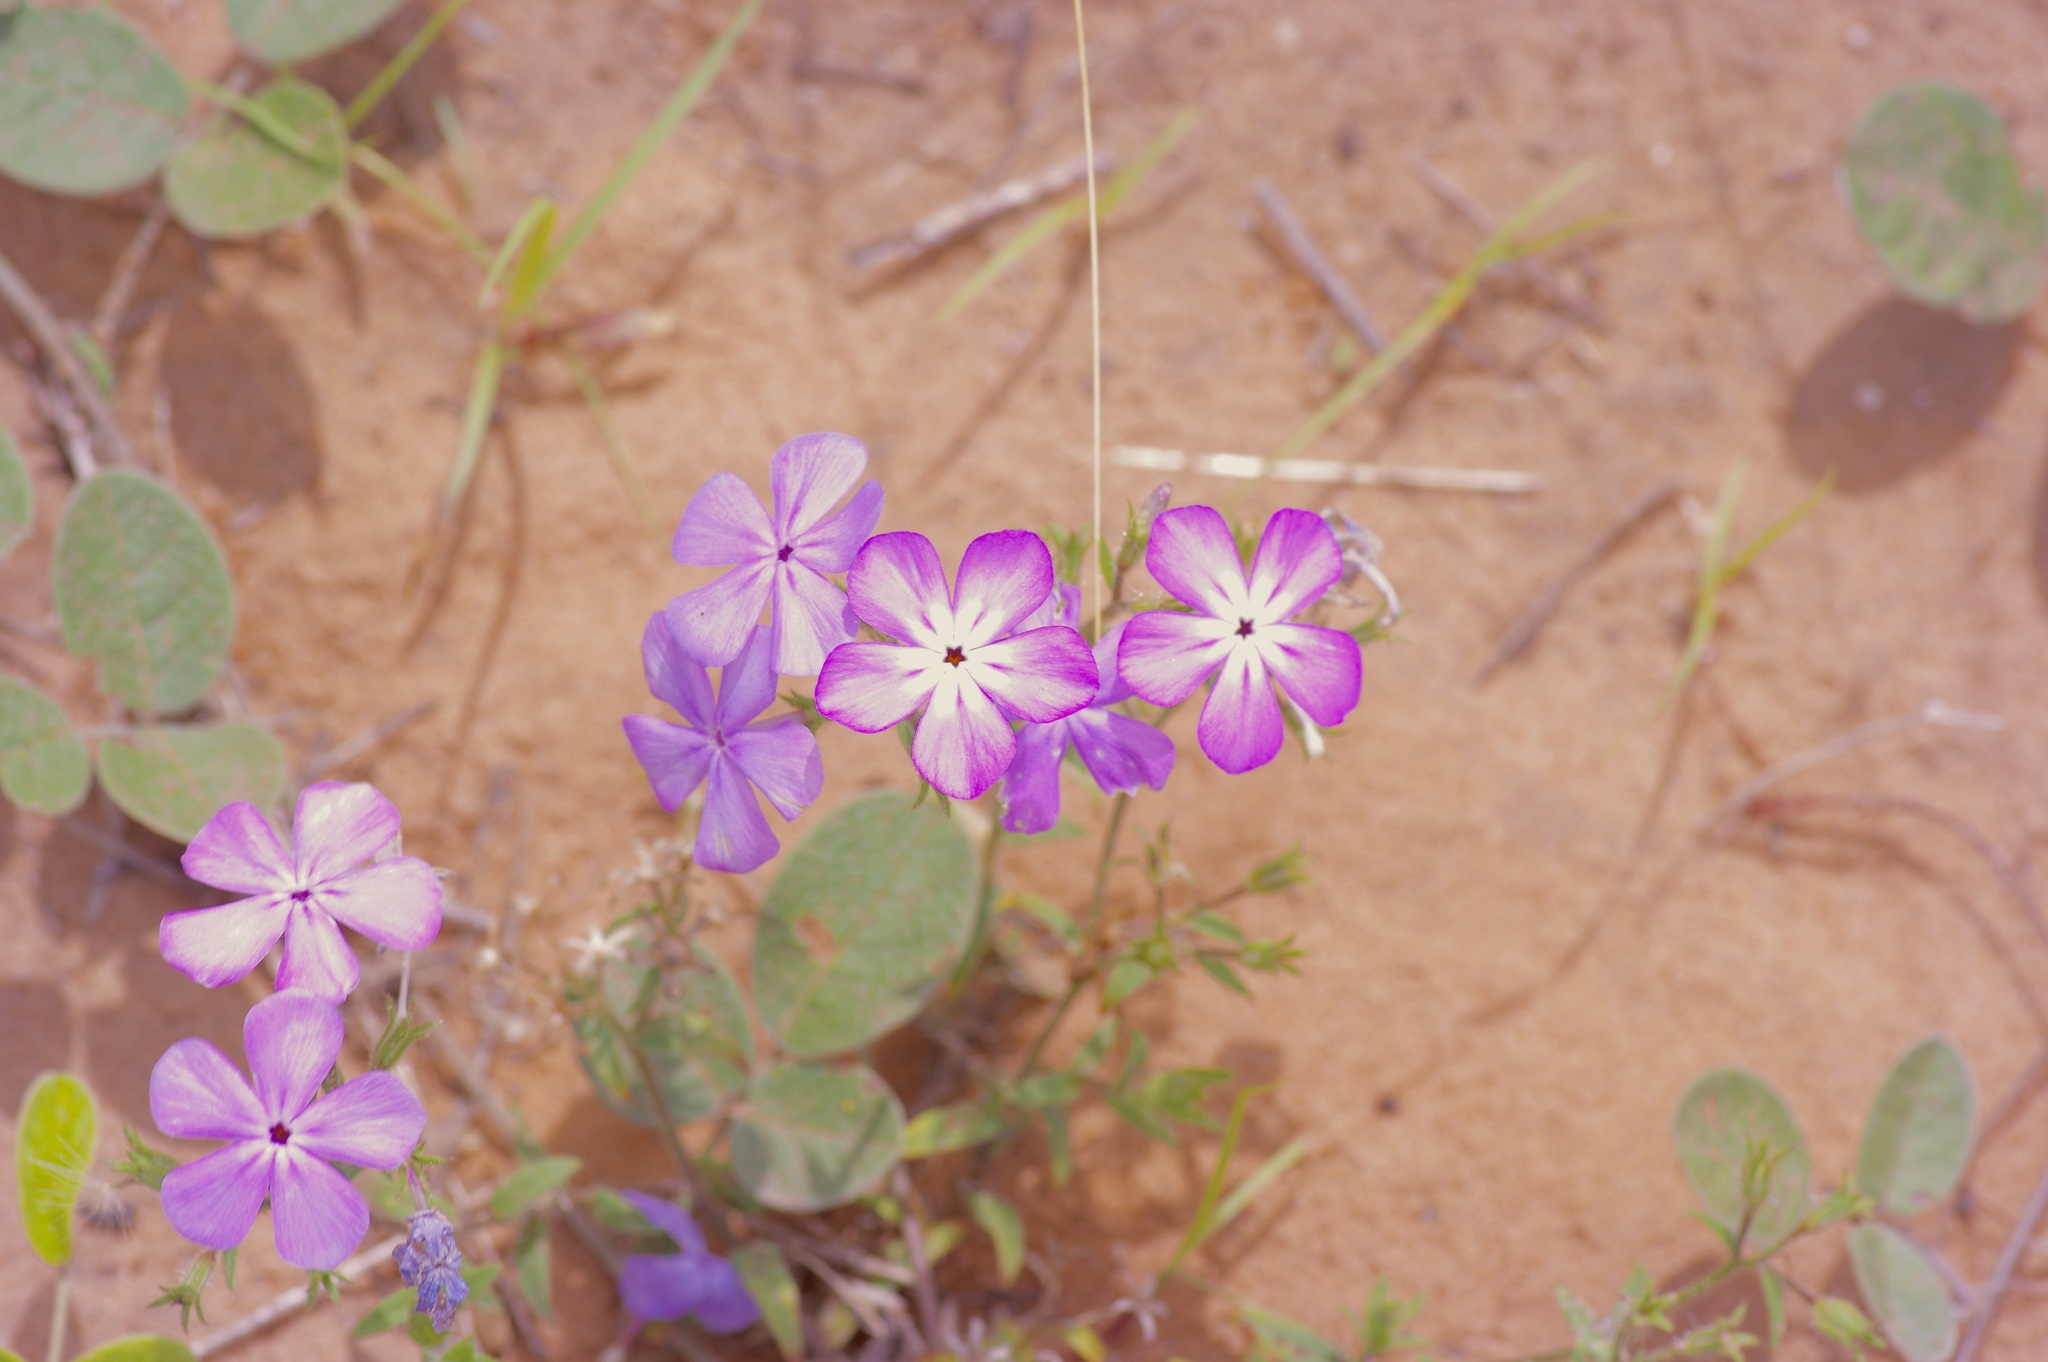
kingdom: Plantae
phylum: Tracheophyta
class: Magnoliopsida
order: Ericales
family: Polemoniaceae
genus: Phlox
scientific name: Phlox glabriflora
